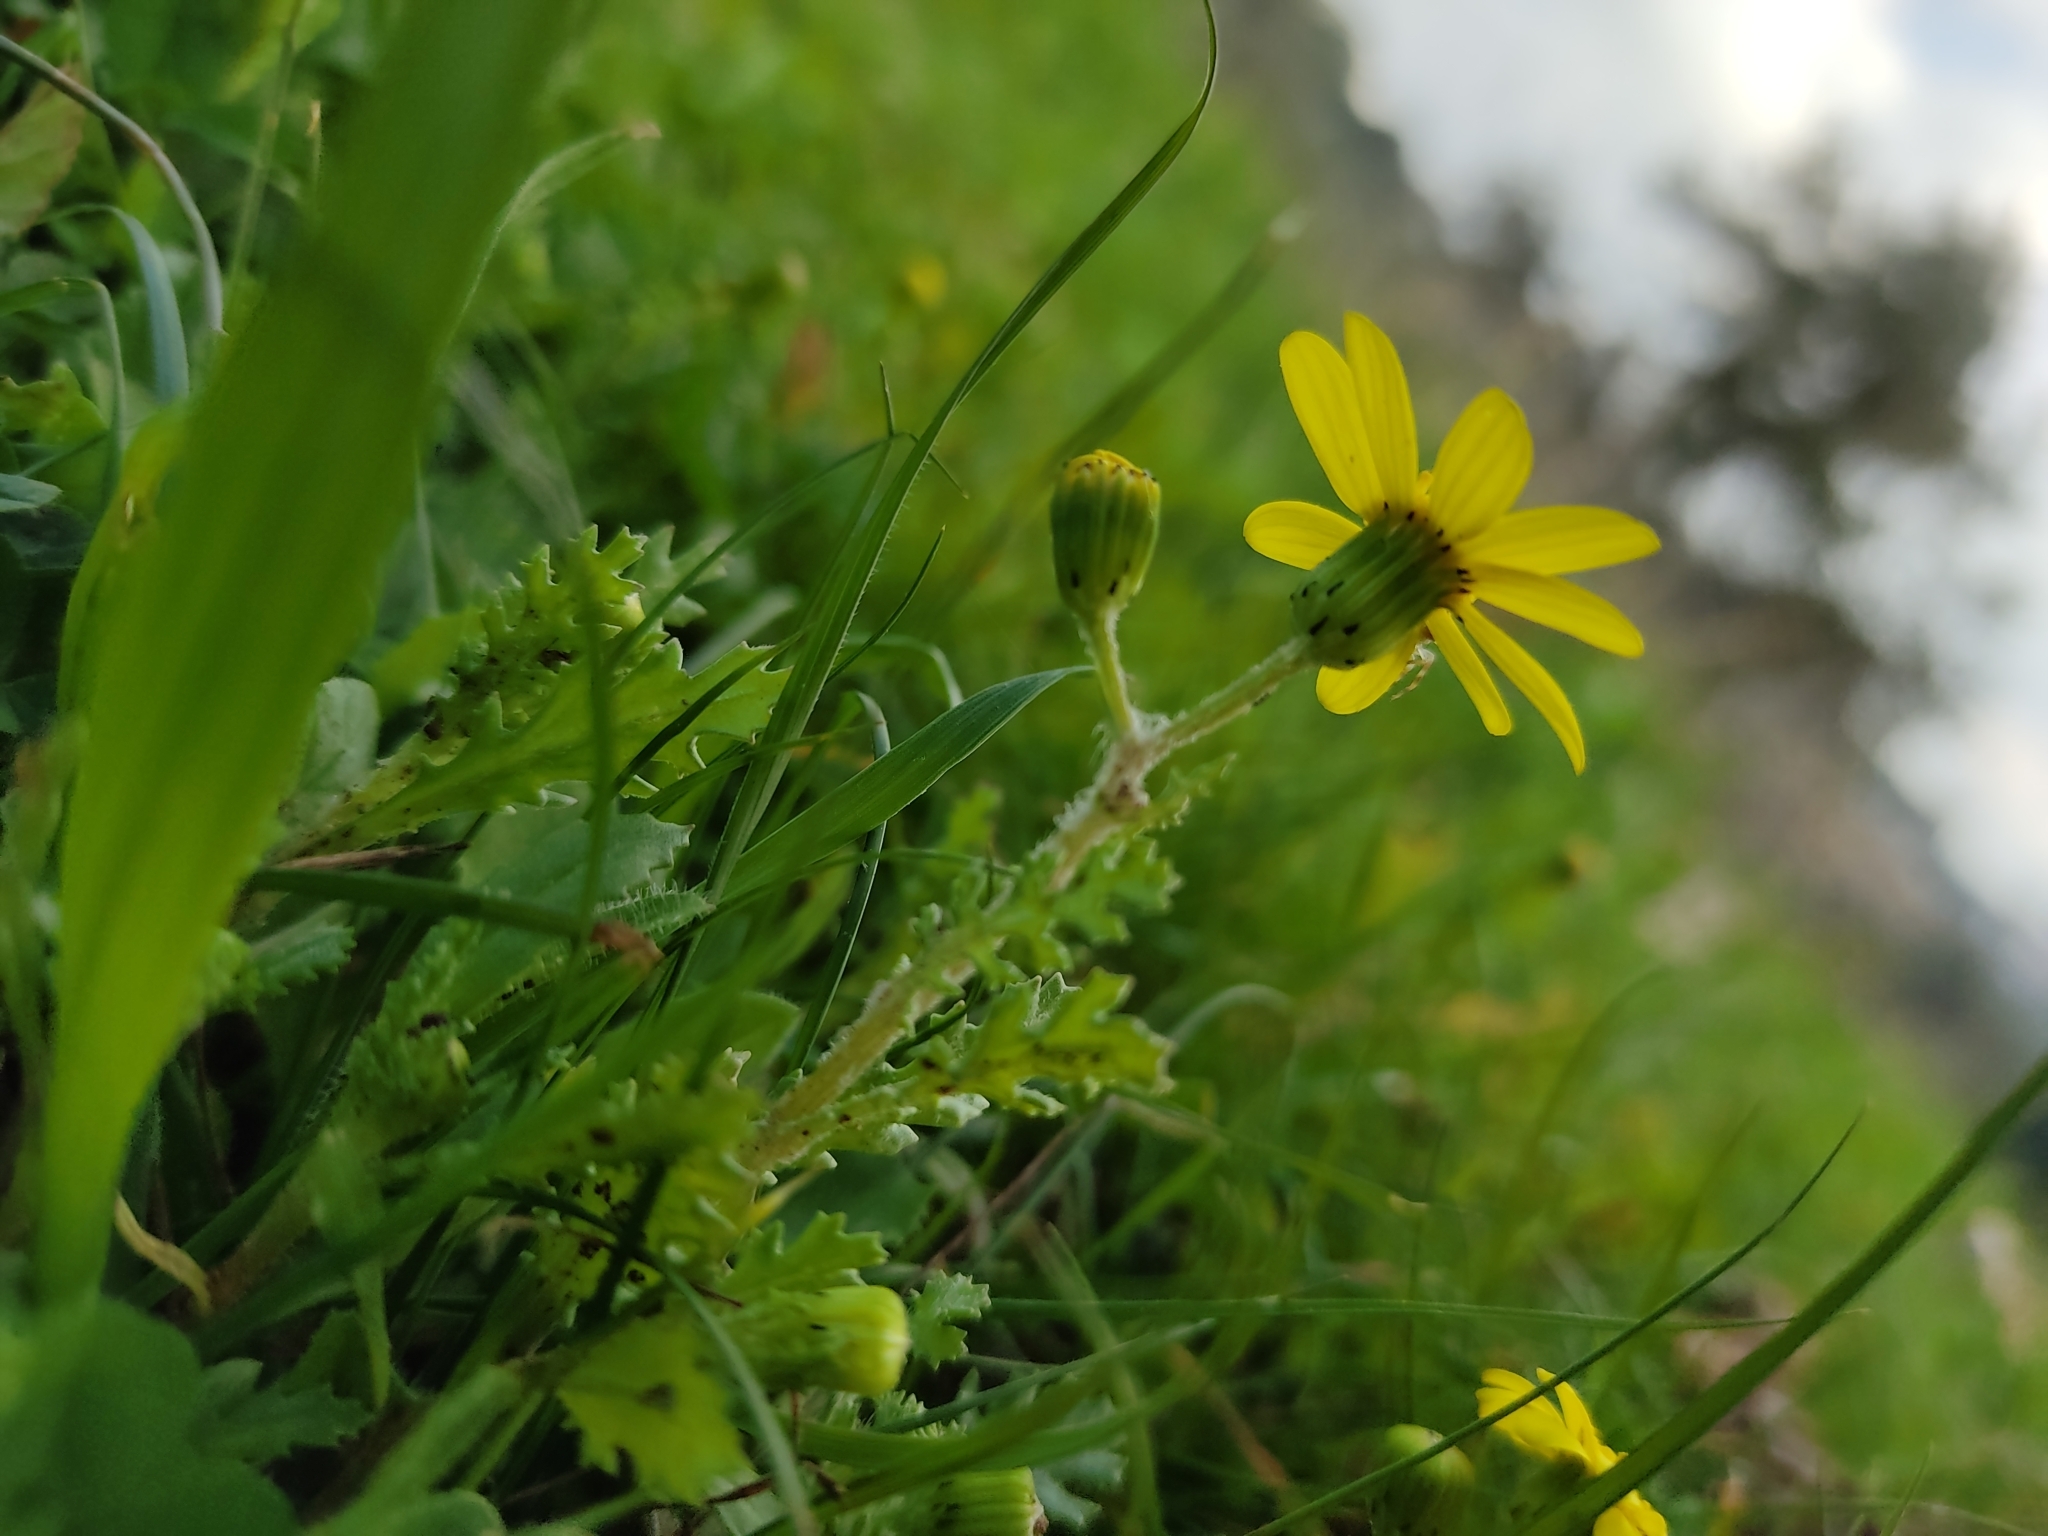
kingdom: Plantae
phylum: Tracheophyta
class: Magnoliopsida
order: Asterales
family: Asteraceae
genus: Senecio
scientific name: Senecio vernalis
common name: Eastern groundsel
